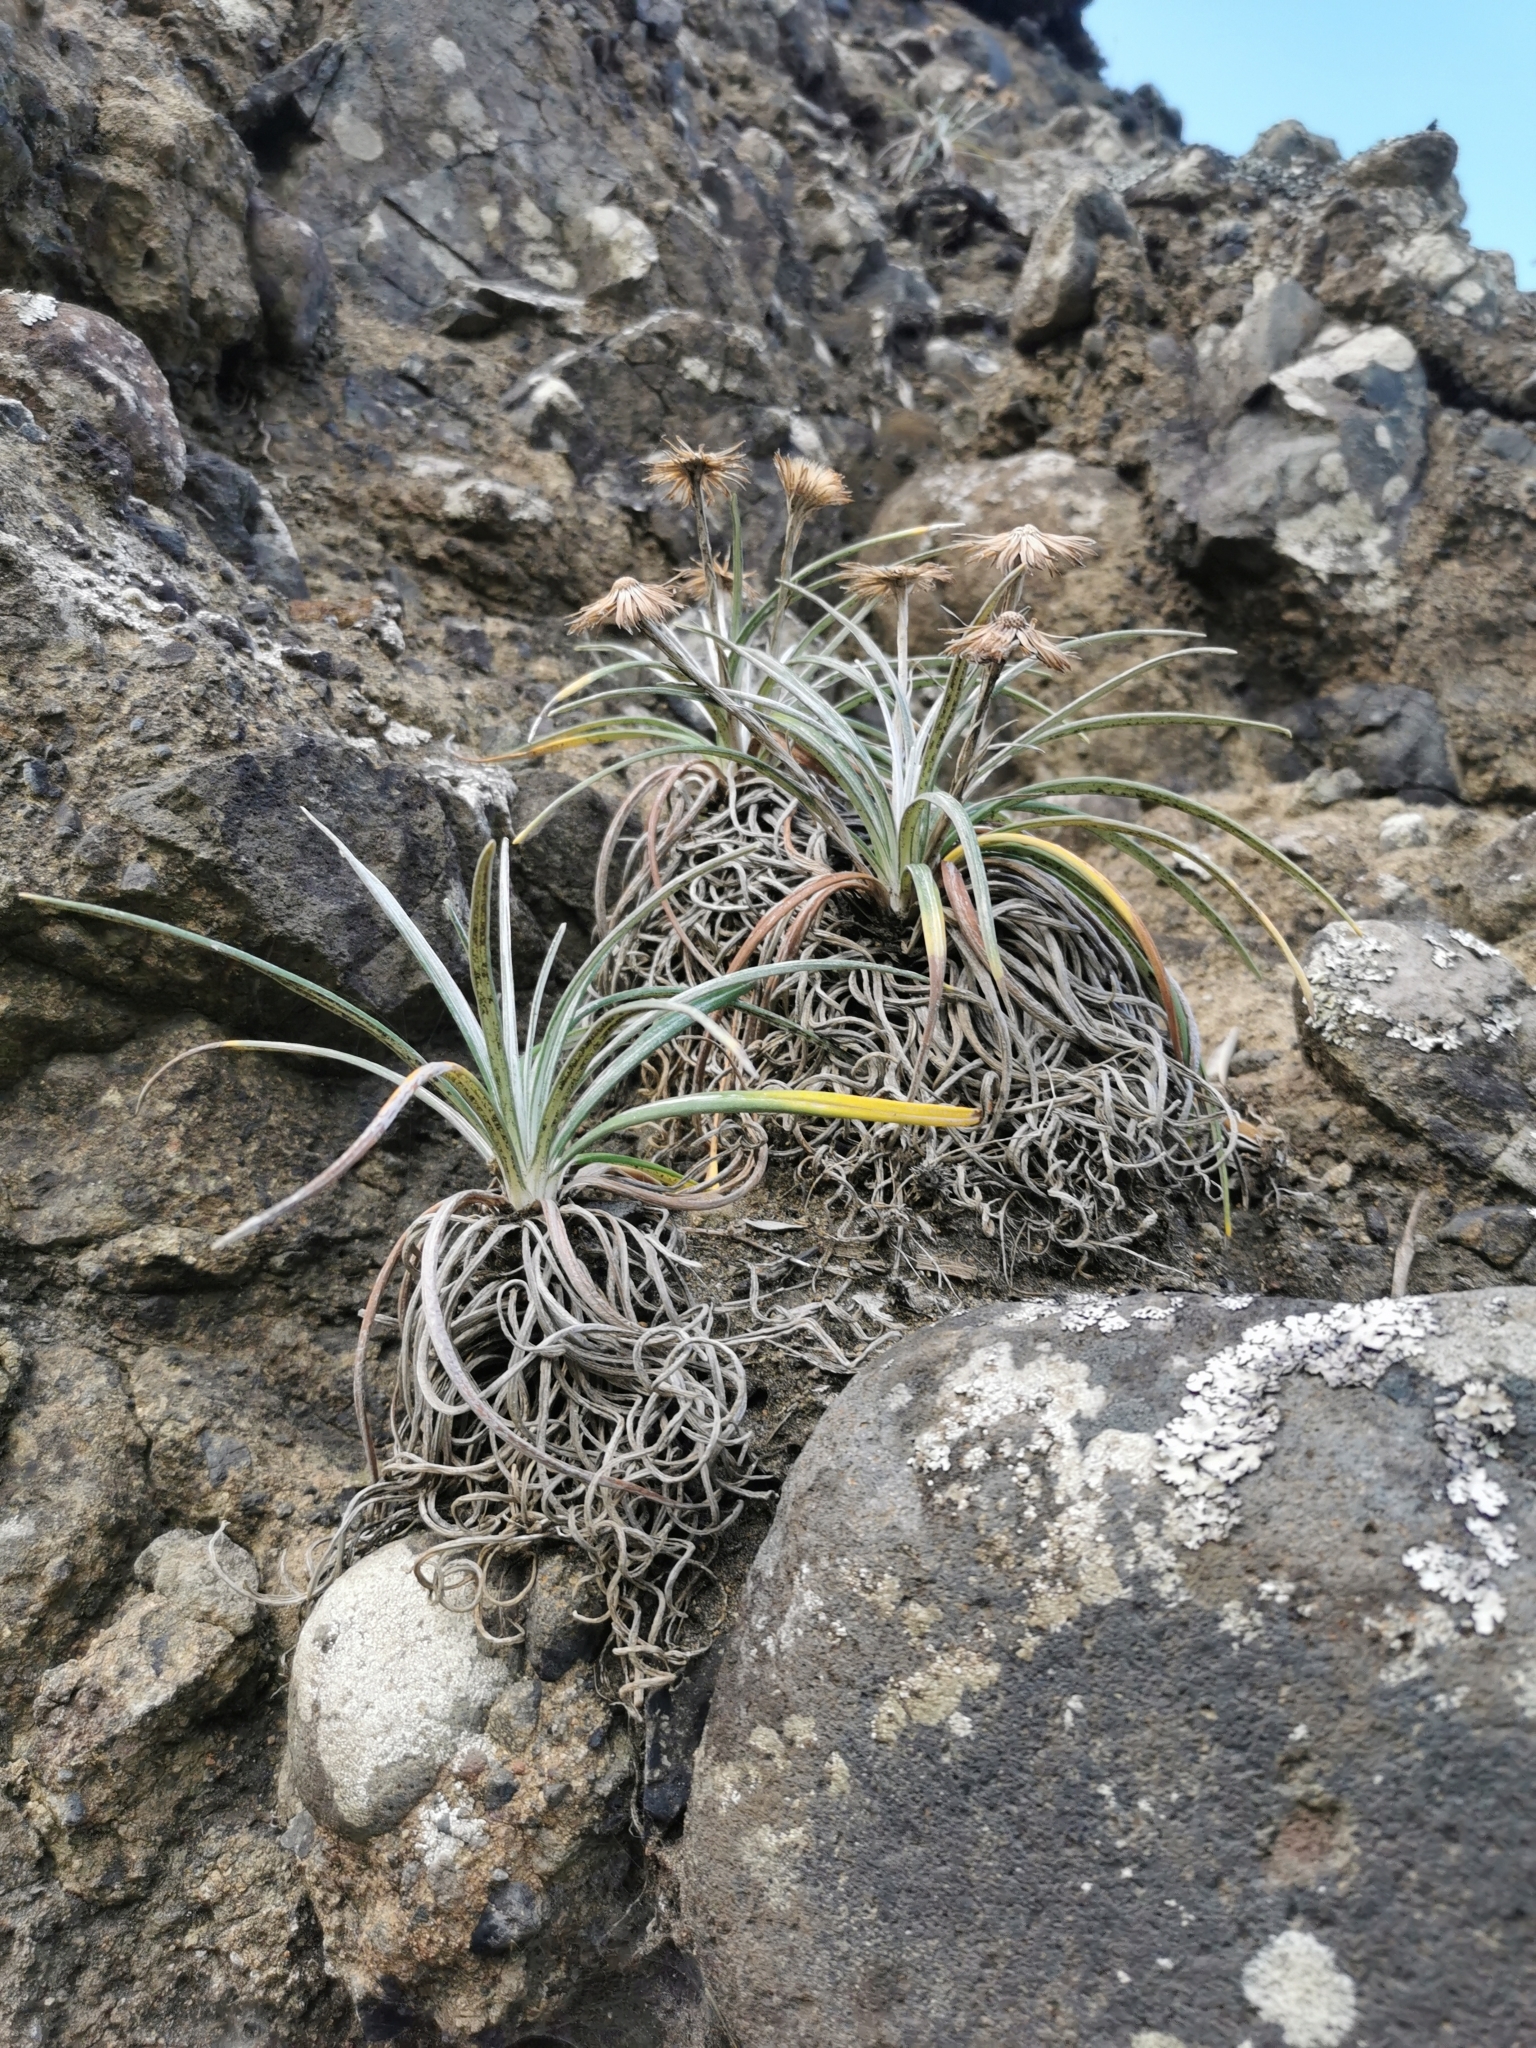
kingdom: Plantae
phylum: Tracheophyta
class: Magnoliopsida
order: Asterales
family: Asteraceae
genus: Celmisia
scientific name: Celmisia major
